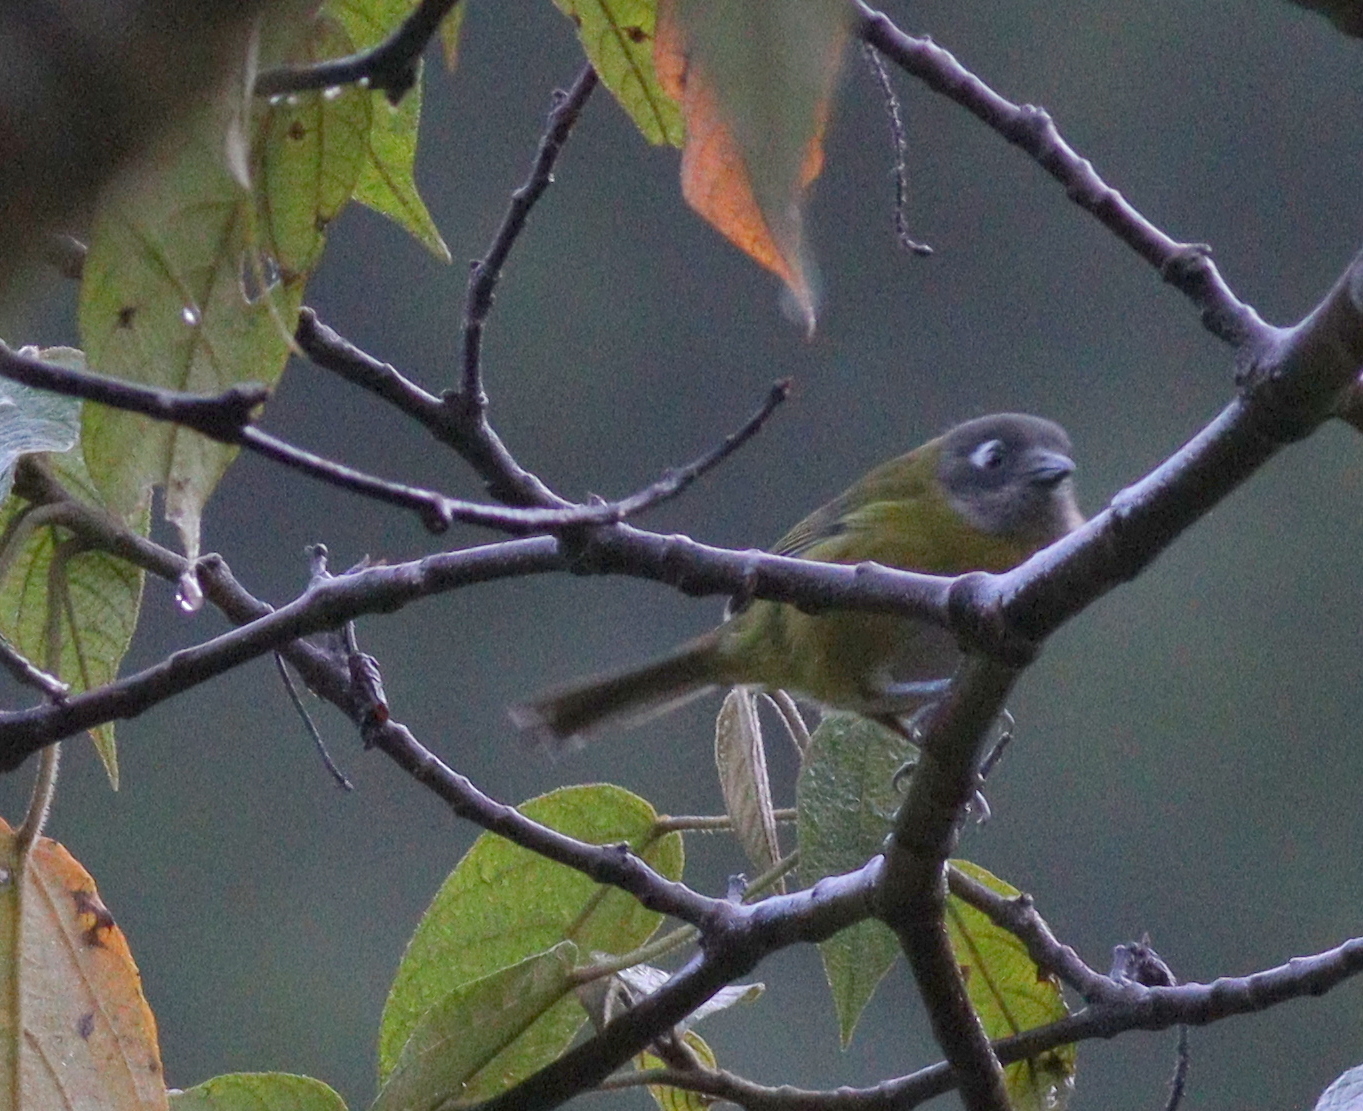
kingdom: Animalia
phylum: Chordata
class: Aves
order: Passeriformes
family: Passerellidae
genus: Chlorospingus
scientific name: Chlorospingus flavopectus
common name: Common chlorospingus
